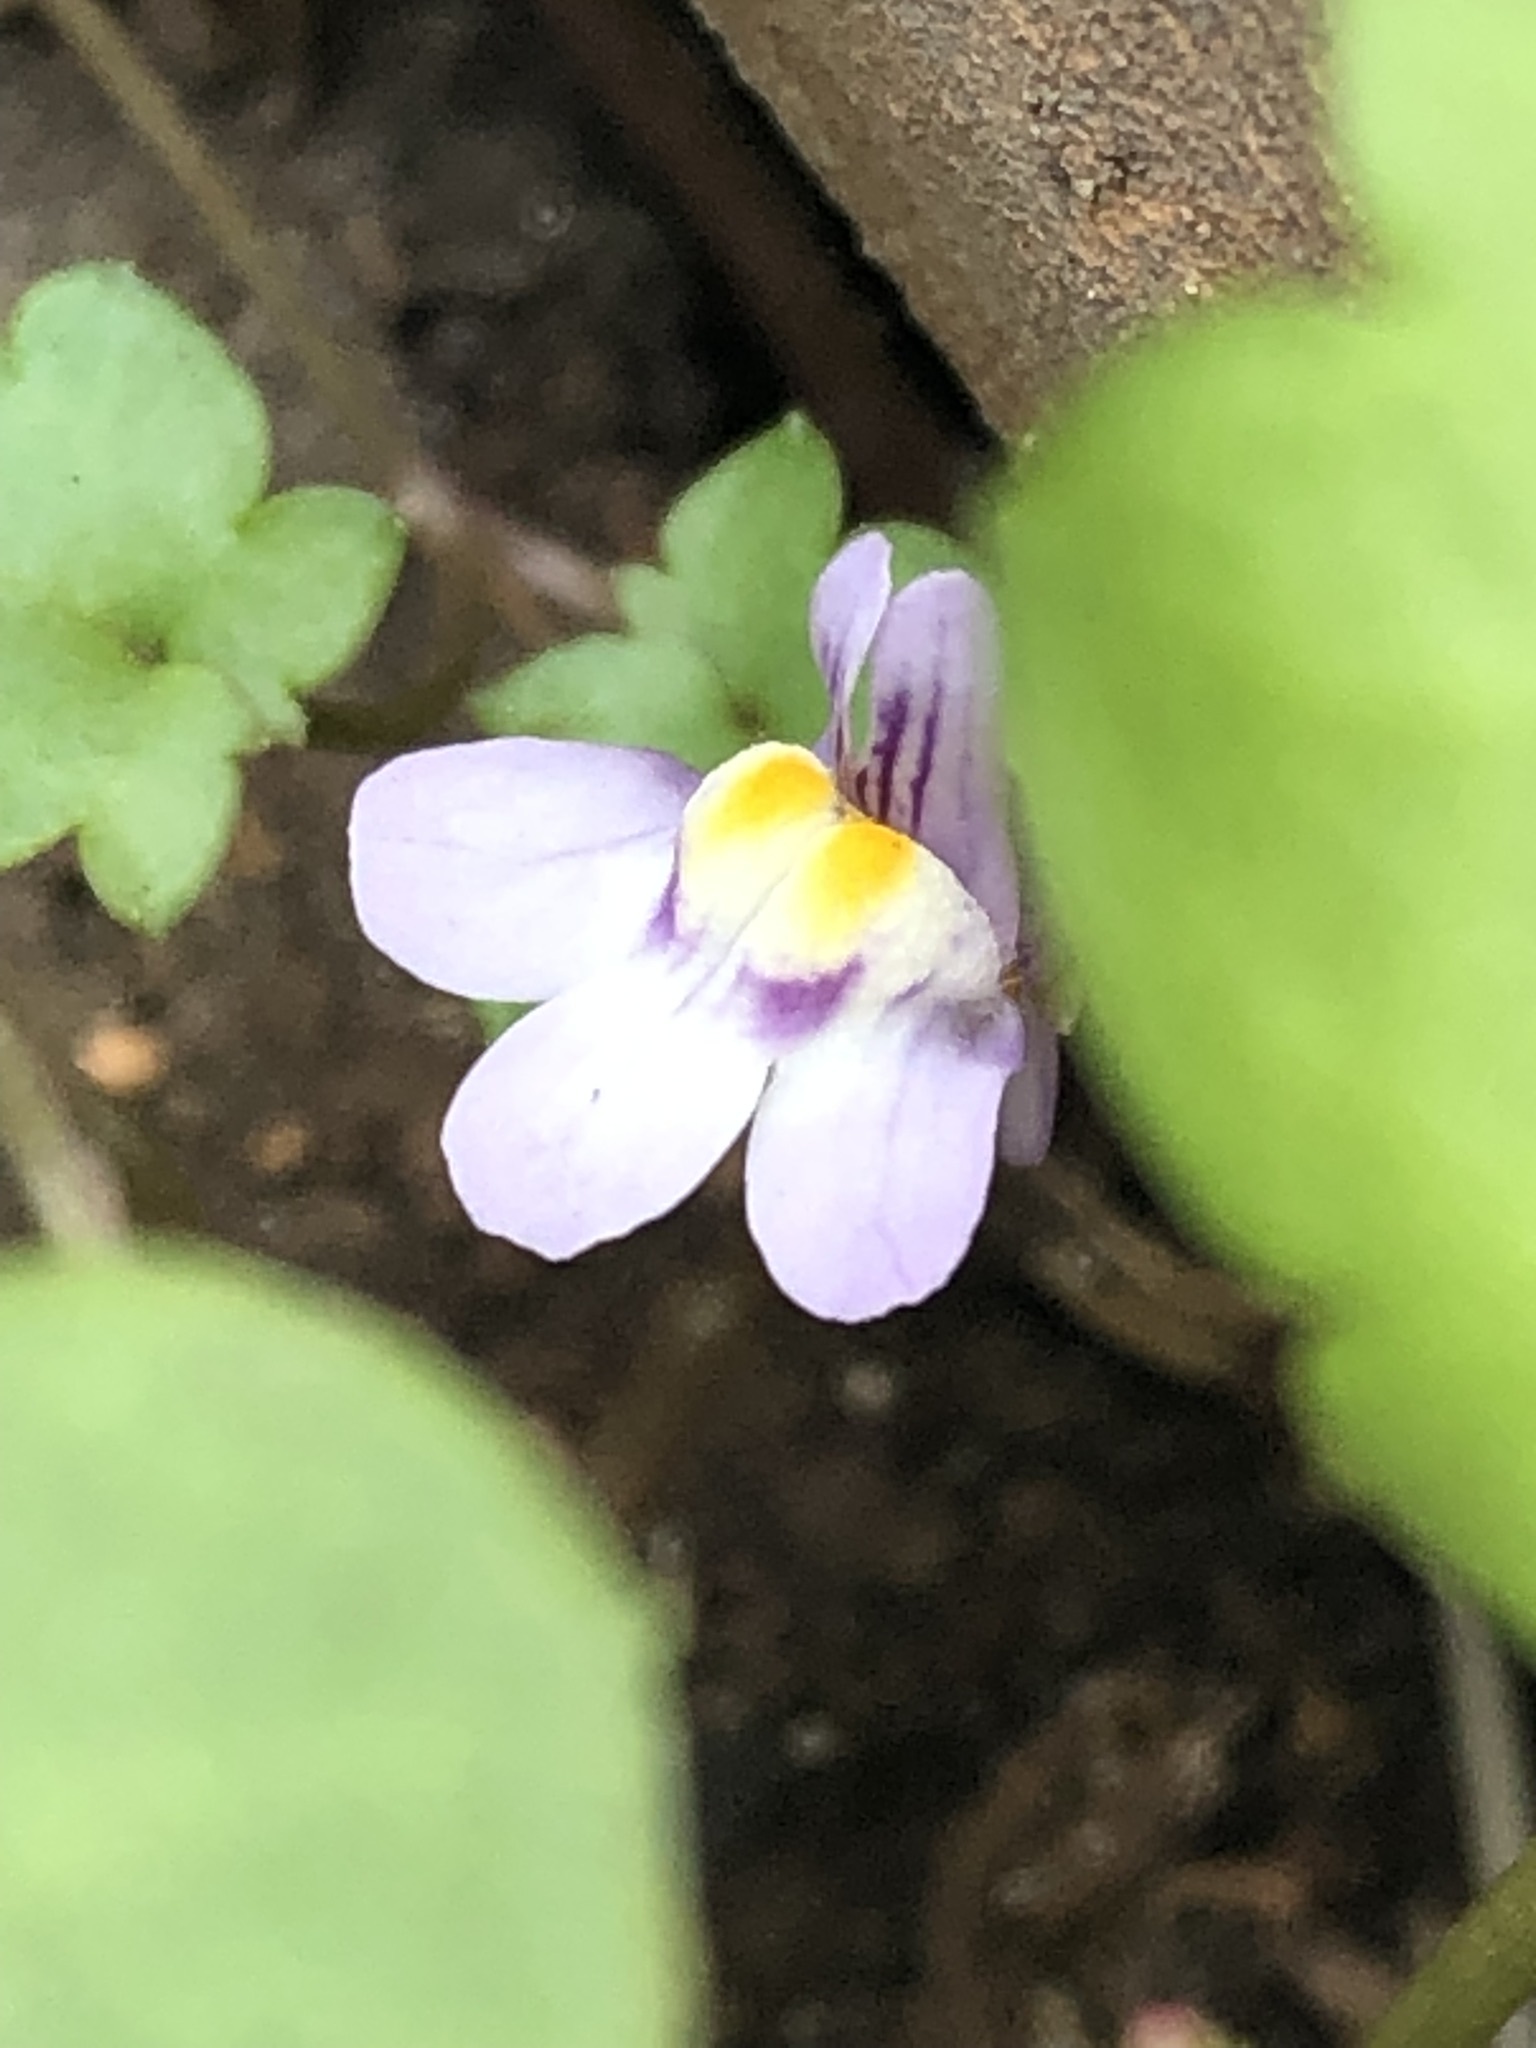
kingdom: Plantae
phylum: Tracheophyta
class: Magnoliopsida
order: Lamiales
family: Plantaginaceae
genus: Cymbalaria
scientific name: Cymbalaria muralis
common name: Ivy-leaved toadflax
